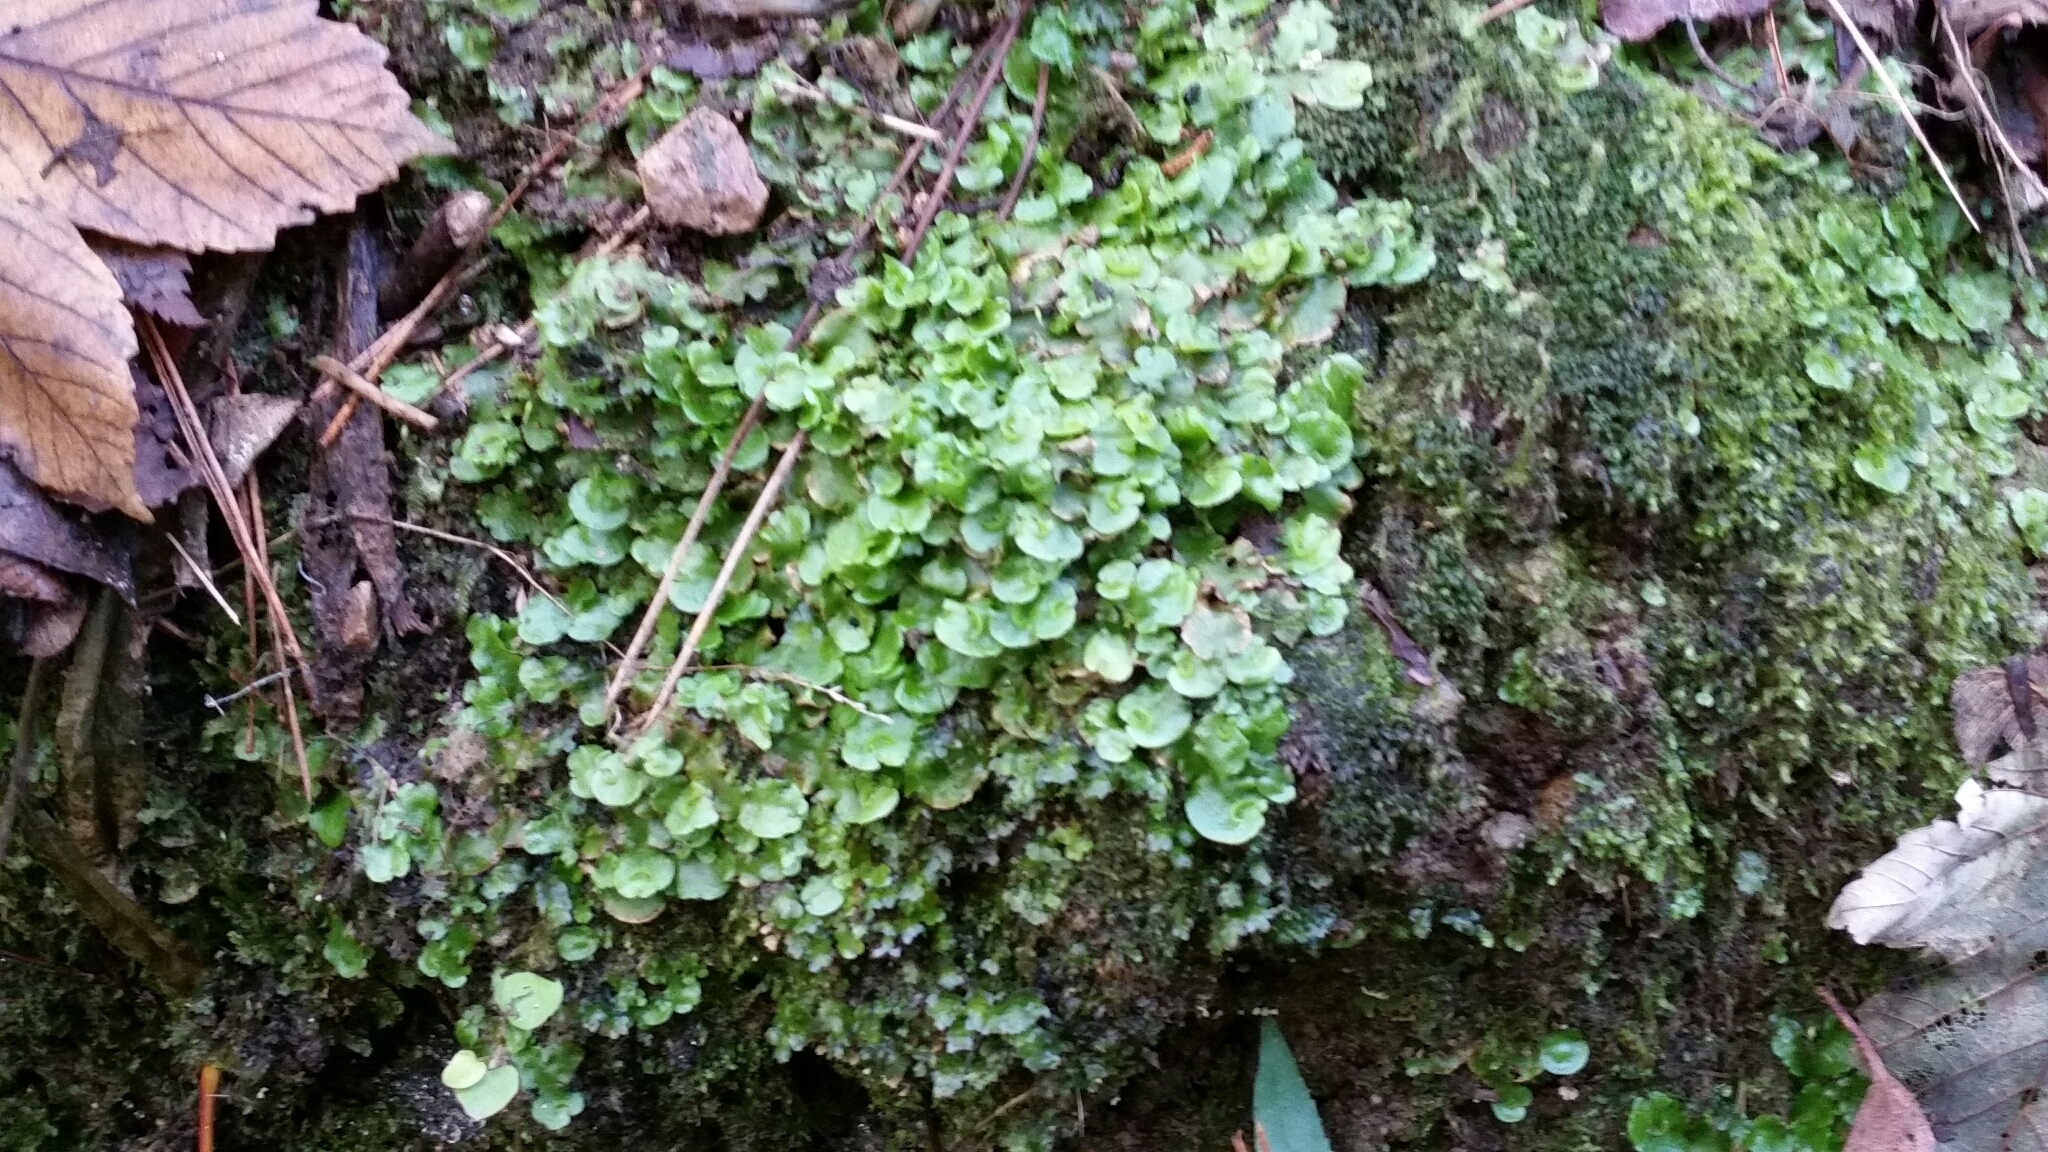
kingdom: Plantae
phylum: Marchantiophyta
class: Marchantiopsida
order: Lunulariales
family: Lunulariaceae
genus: Lunularia
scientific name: Lunularia cruciata
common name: Crescent-cup liverwort
